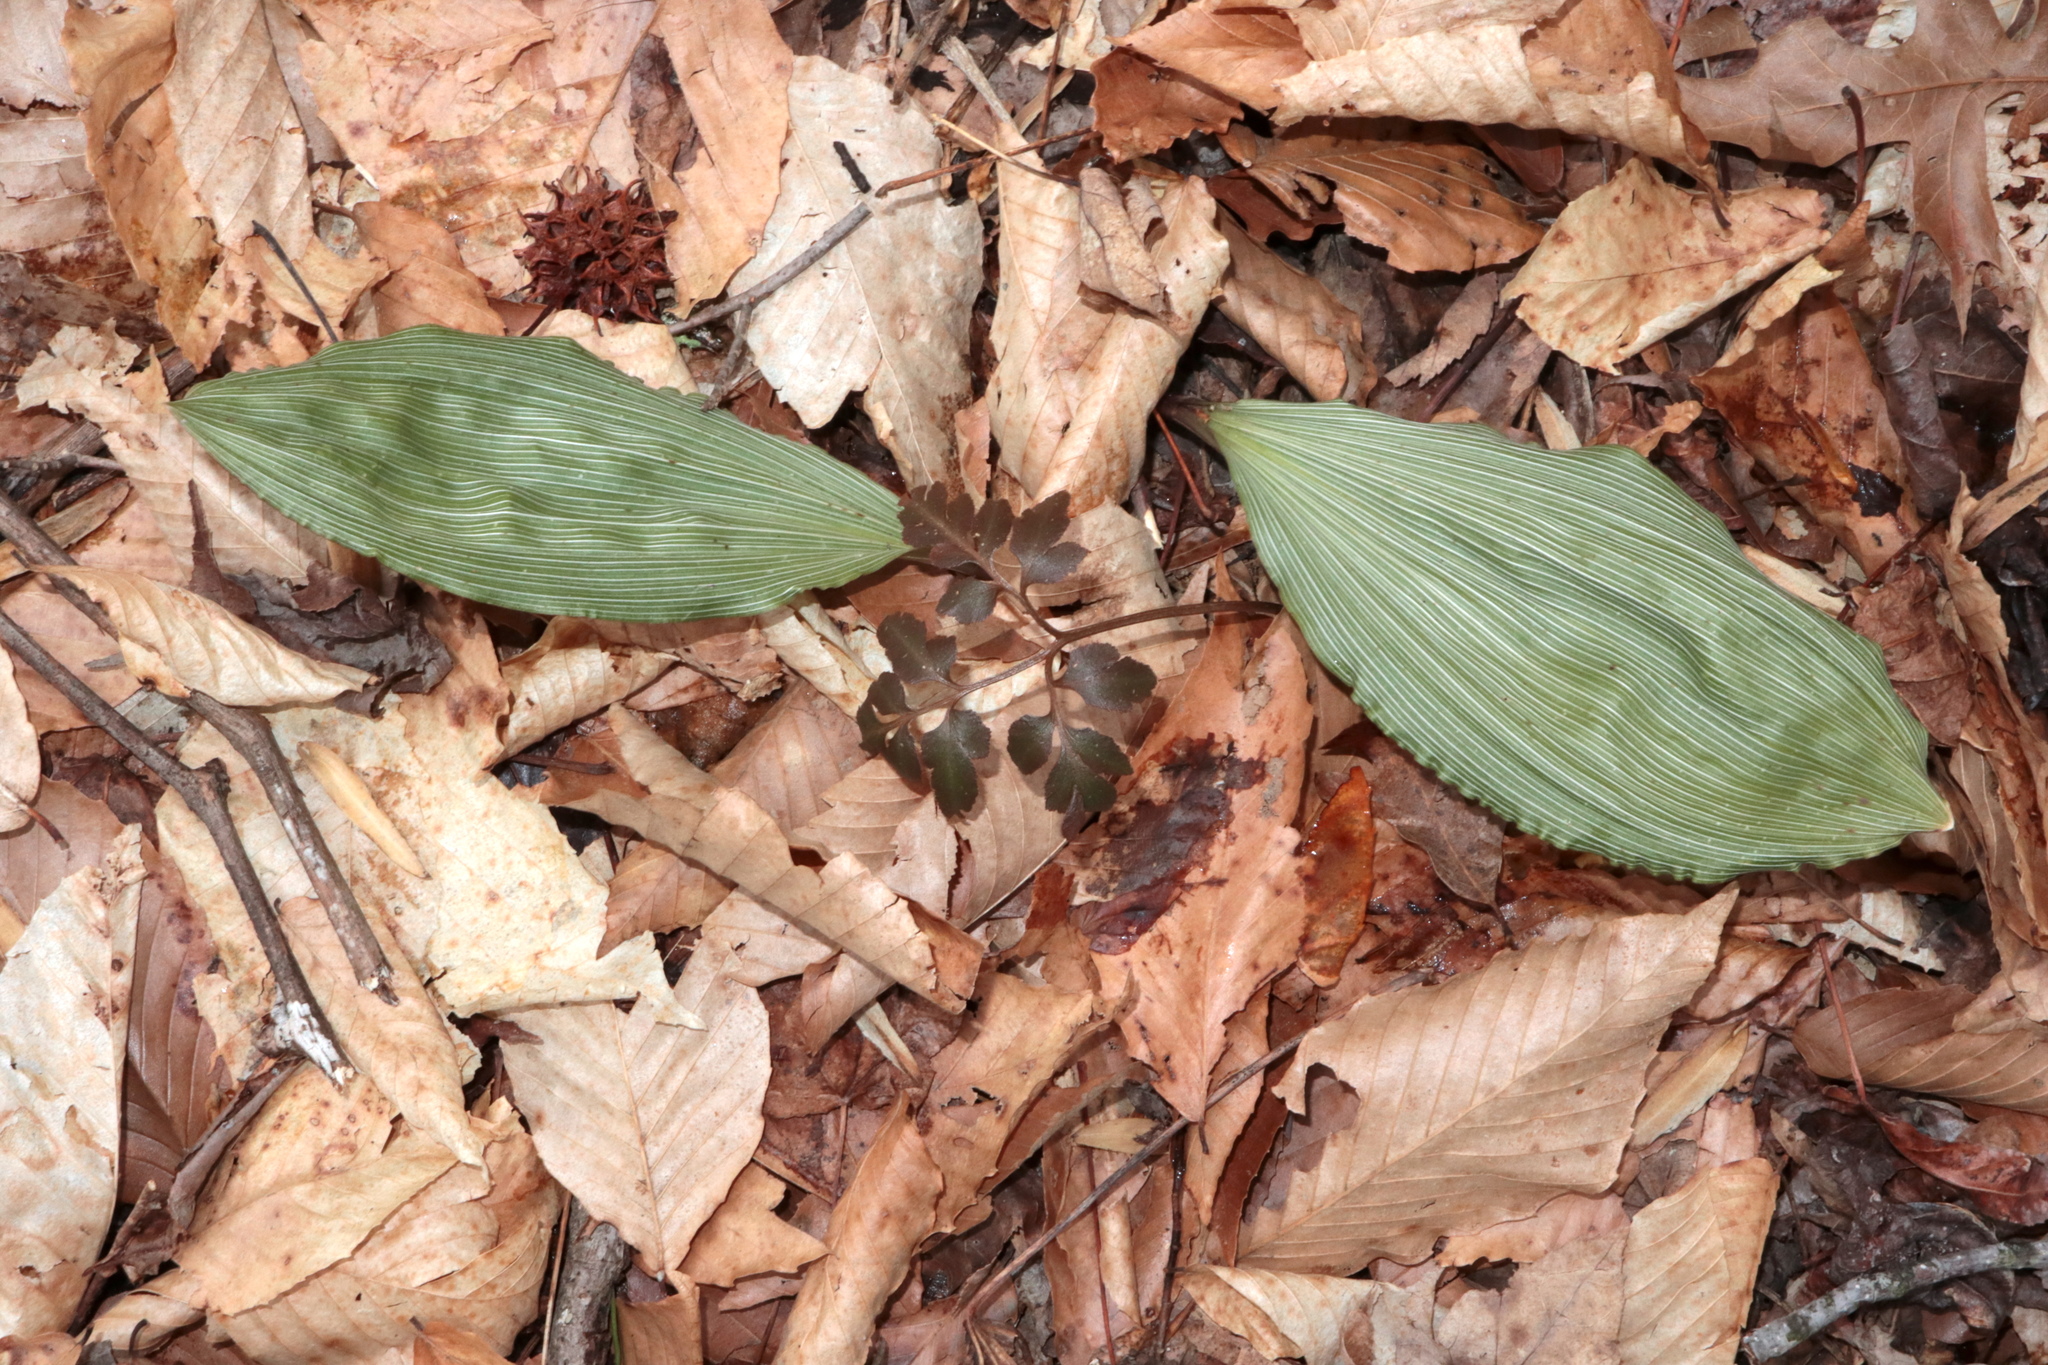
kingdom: Plantae
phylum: Tracheophyta
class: Liliopsida
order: Asparagales
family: Orchidaceae
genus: Aplectrum
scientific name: Aplectrum hyemale
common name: Adam-and-eve
